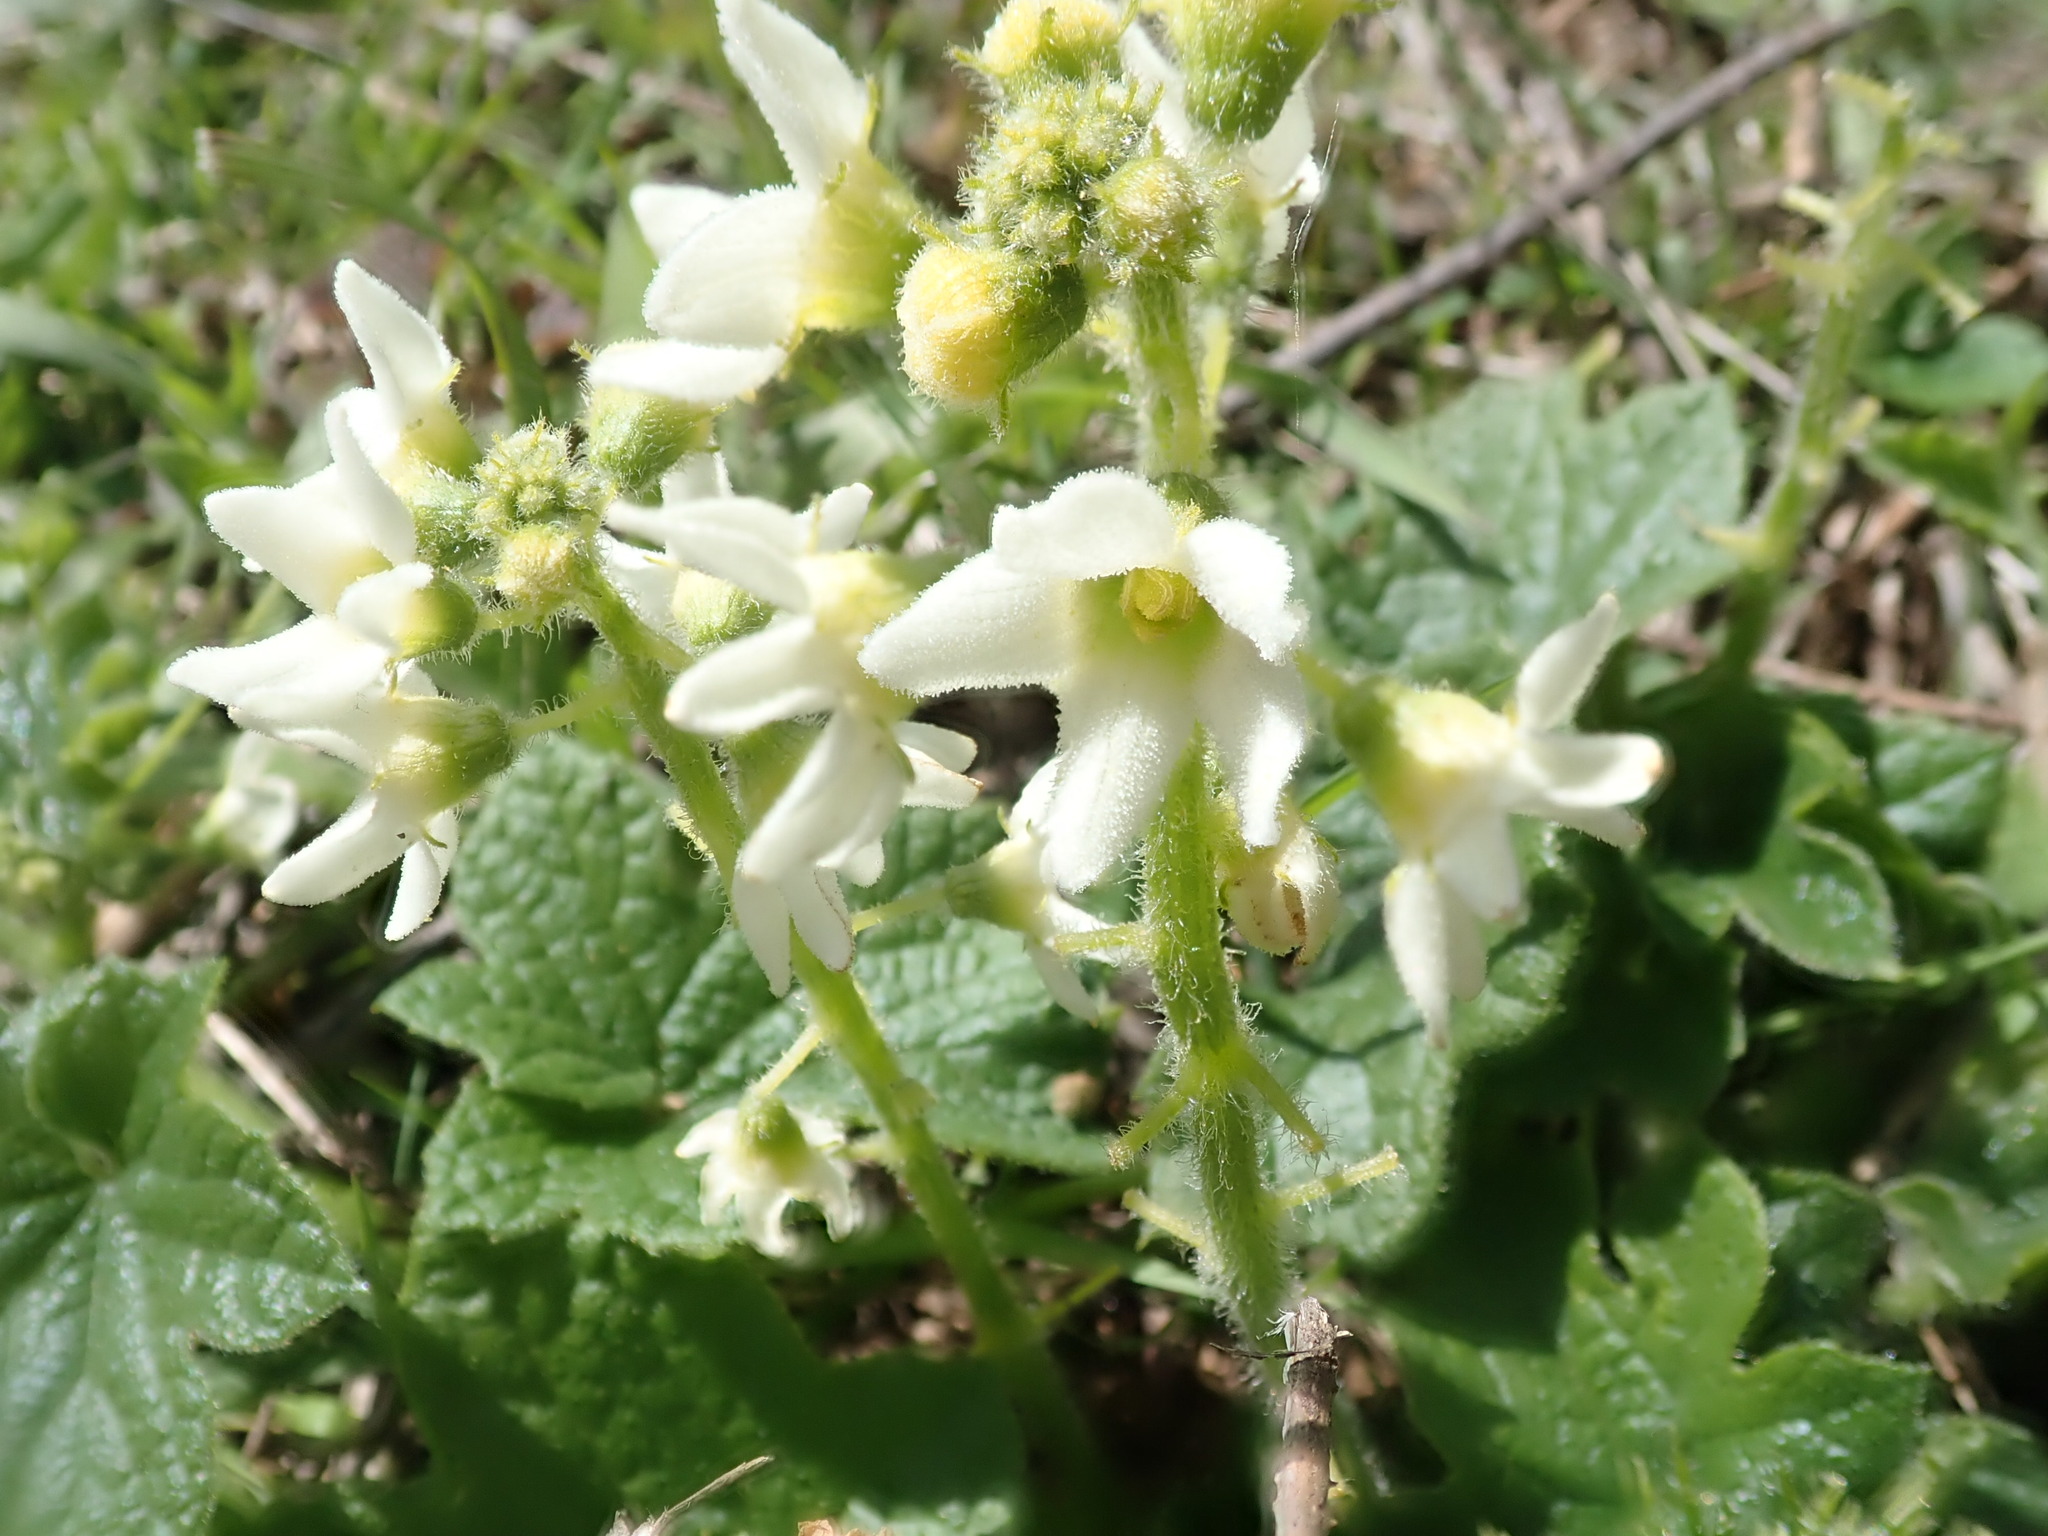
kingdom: Plantae
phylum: Tracheophyta
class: Magnoliopsida
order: Cucurbitales
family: Cucurbitaceae
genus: Marah
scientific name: Marah oregana
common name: Coastal manroot
